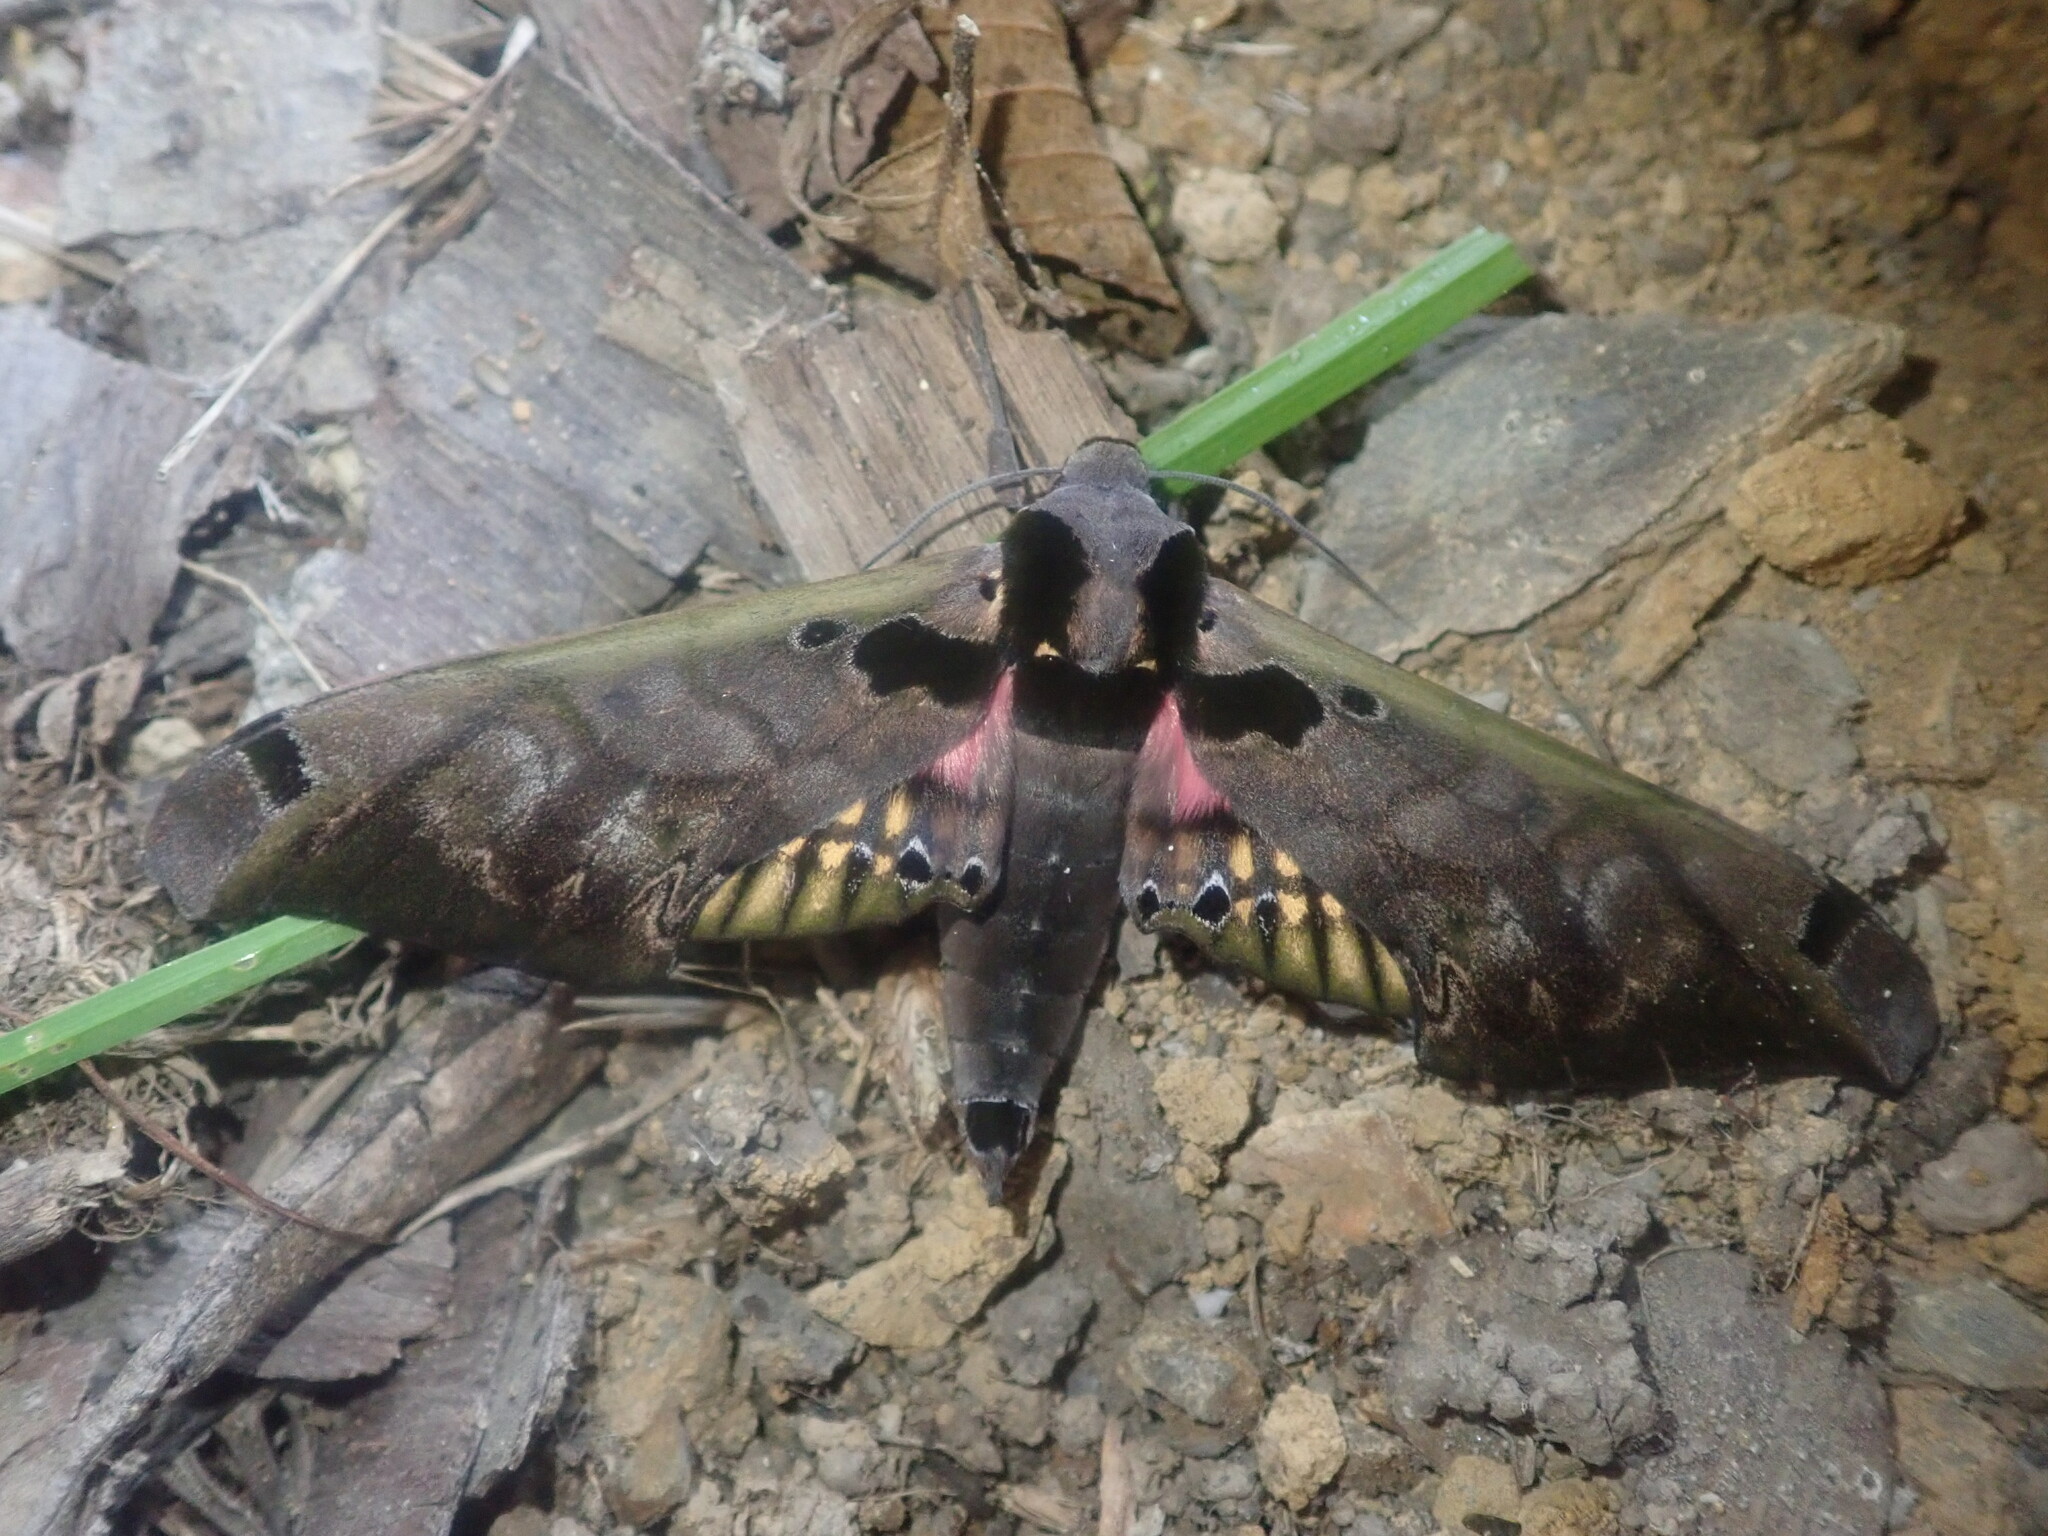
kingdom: Animalia
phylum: Arthropoda
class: Insecta
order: Lepidoptera
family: Sphingidae
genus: Adhemarius
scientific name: Adhemarius sexoculata
